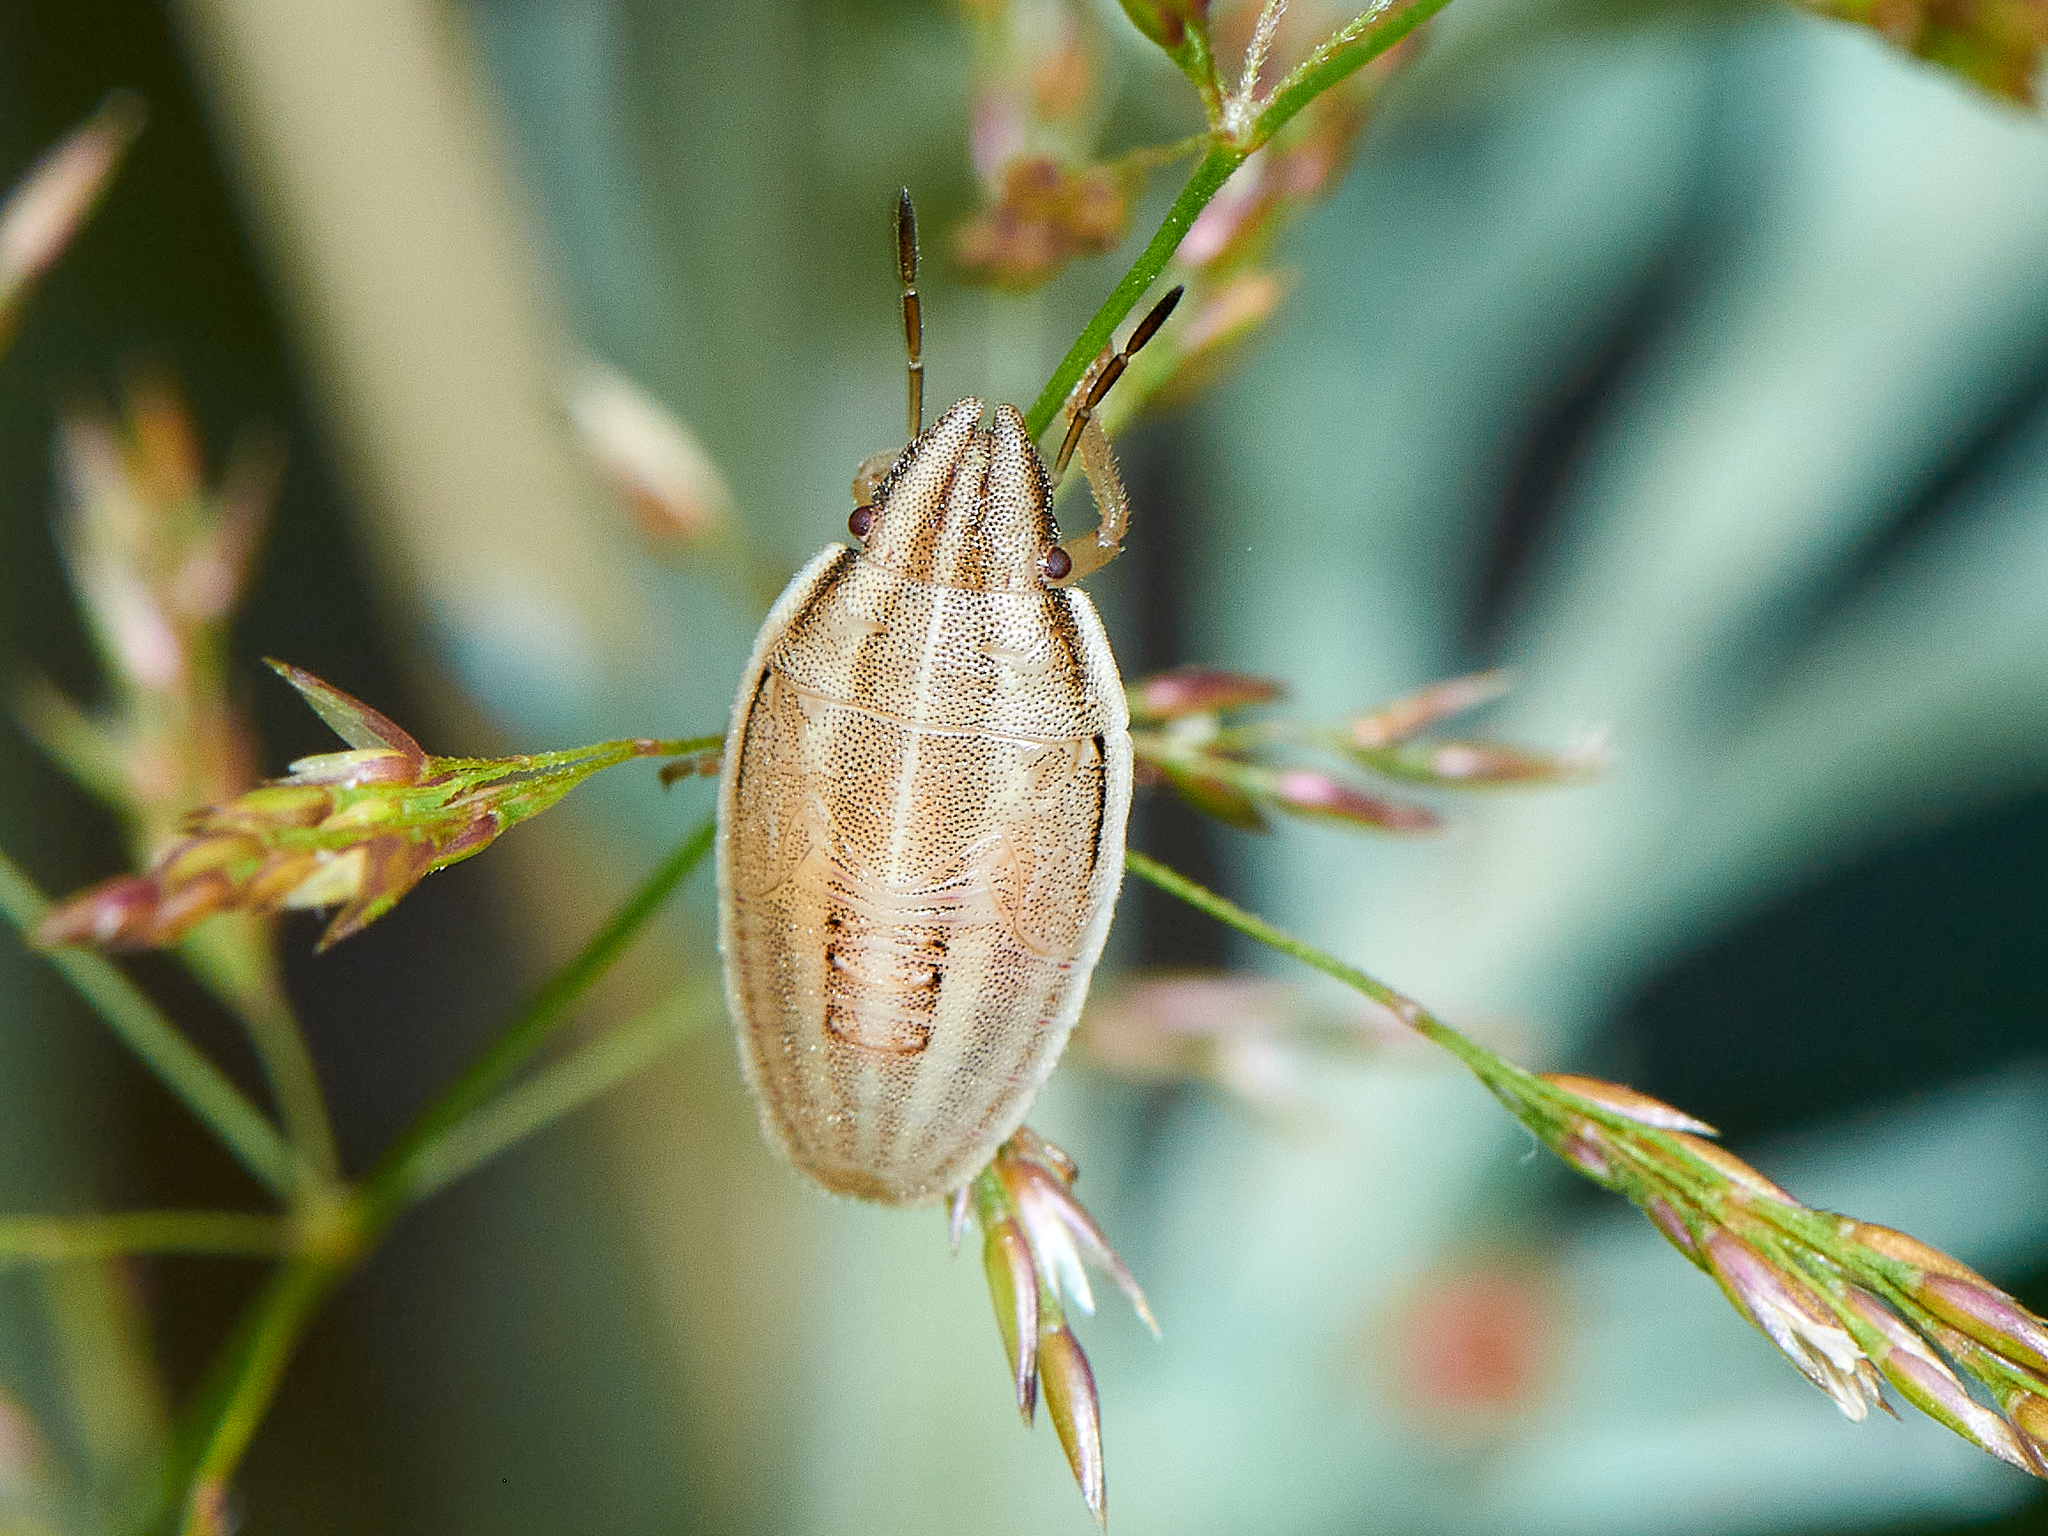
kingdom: Animalia
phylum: Arthropoda
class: Insecta
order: Hemiptera
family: Pentatomidae
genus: Aelia
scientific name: Aelia acuminata
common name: Bishop's mitre
